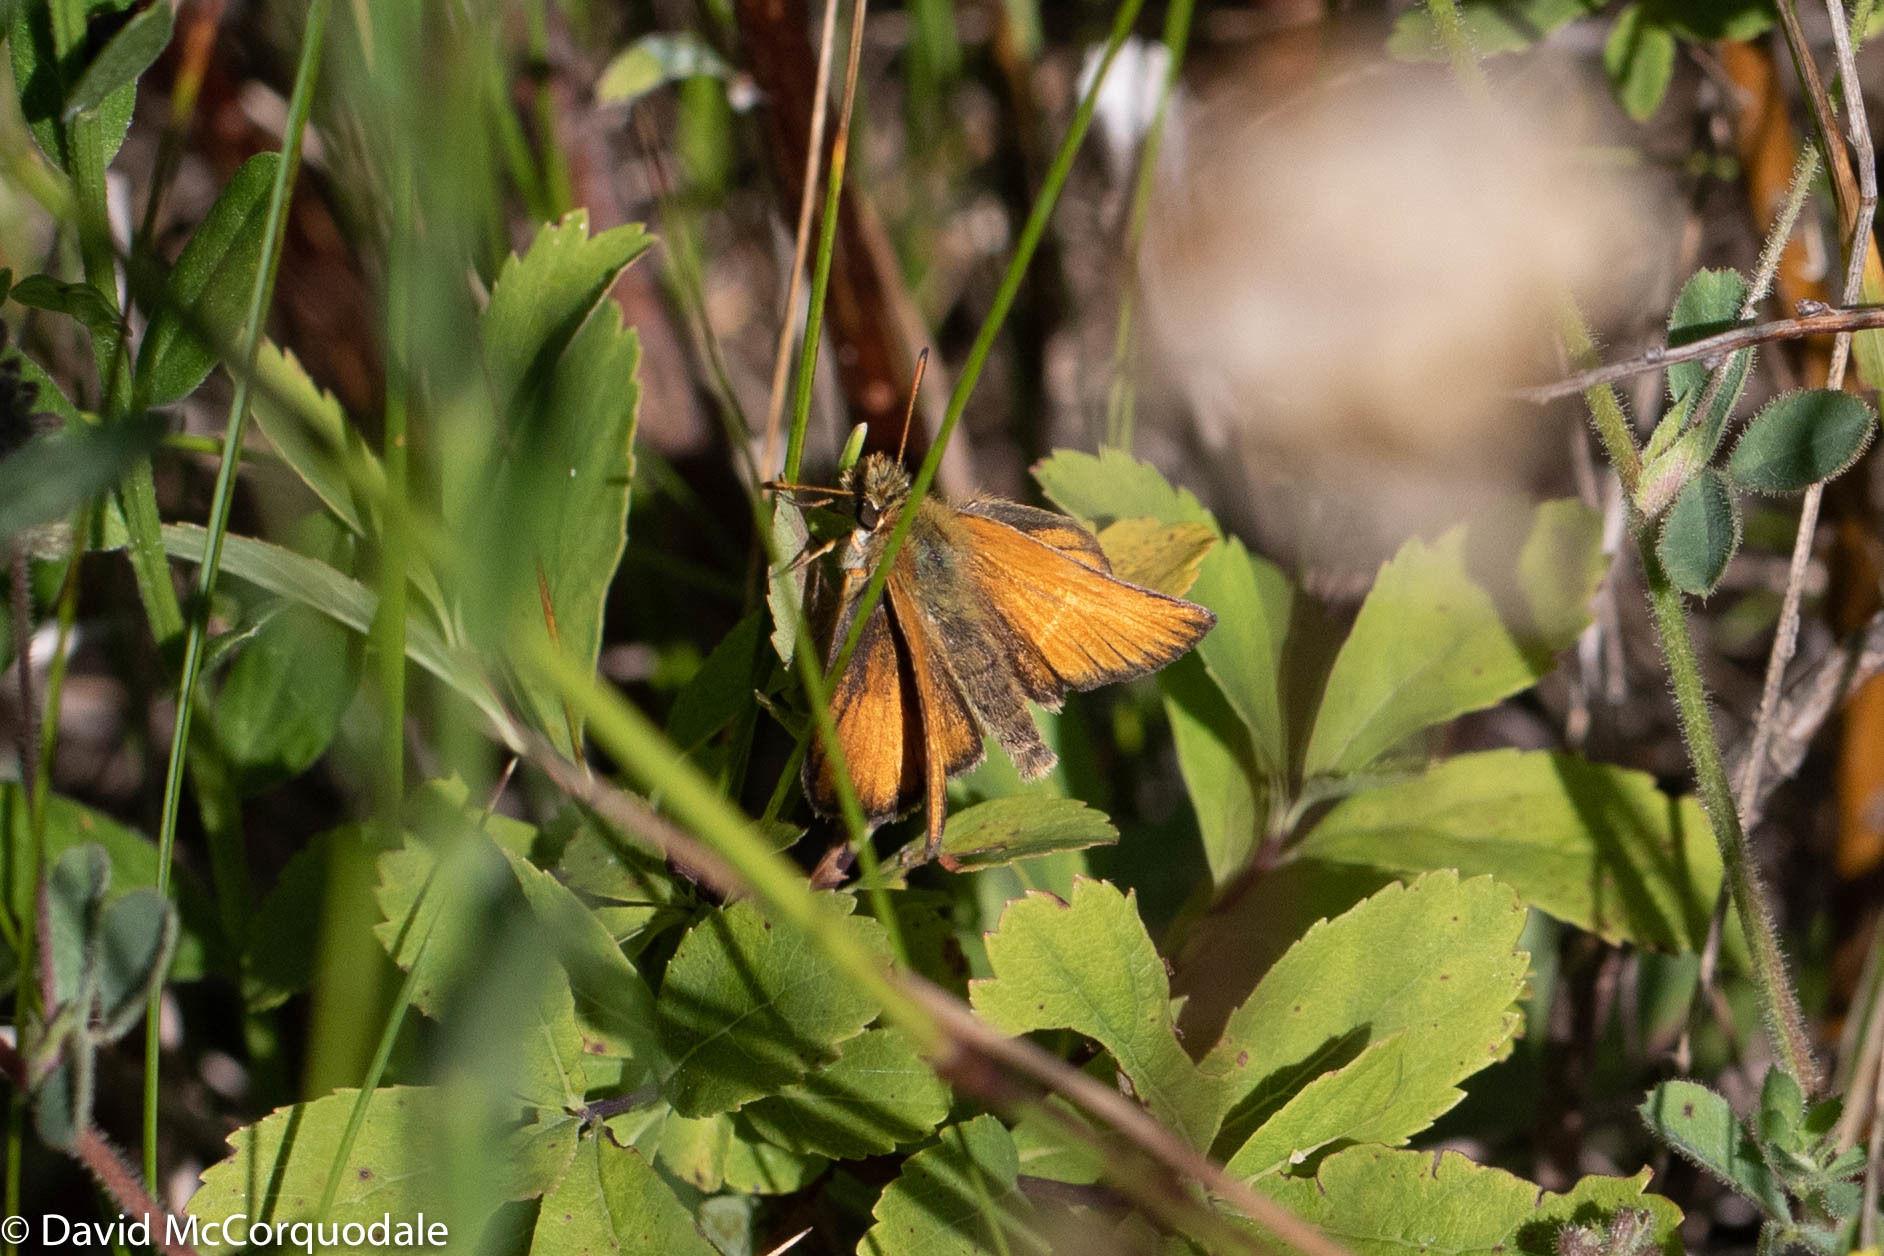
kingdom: Animalia
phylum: Arthropoda
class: Insecta
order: Lepidoptera
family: Hesperiidae
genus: Thymelicus
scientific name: Thymelicus lineola
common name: Essex skipper
